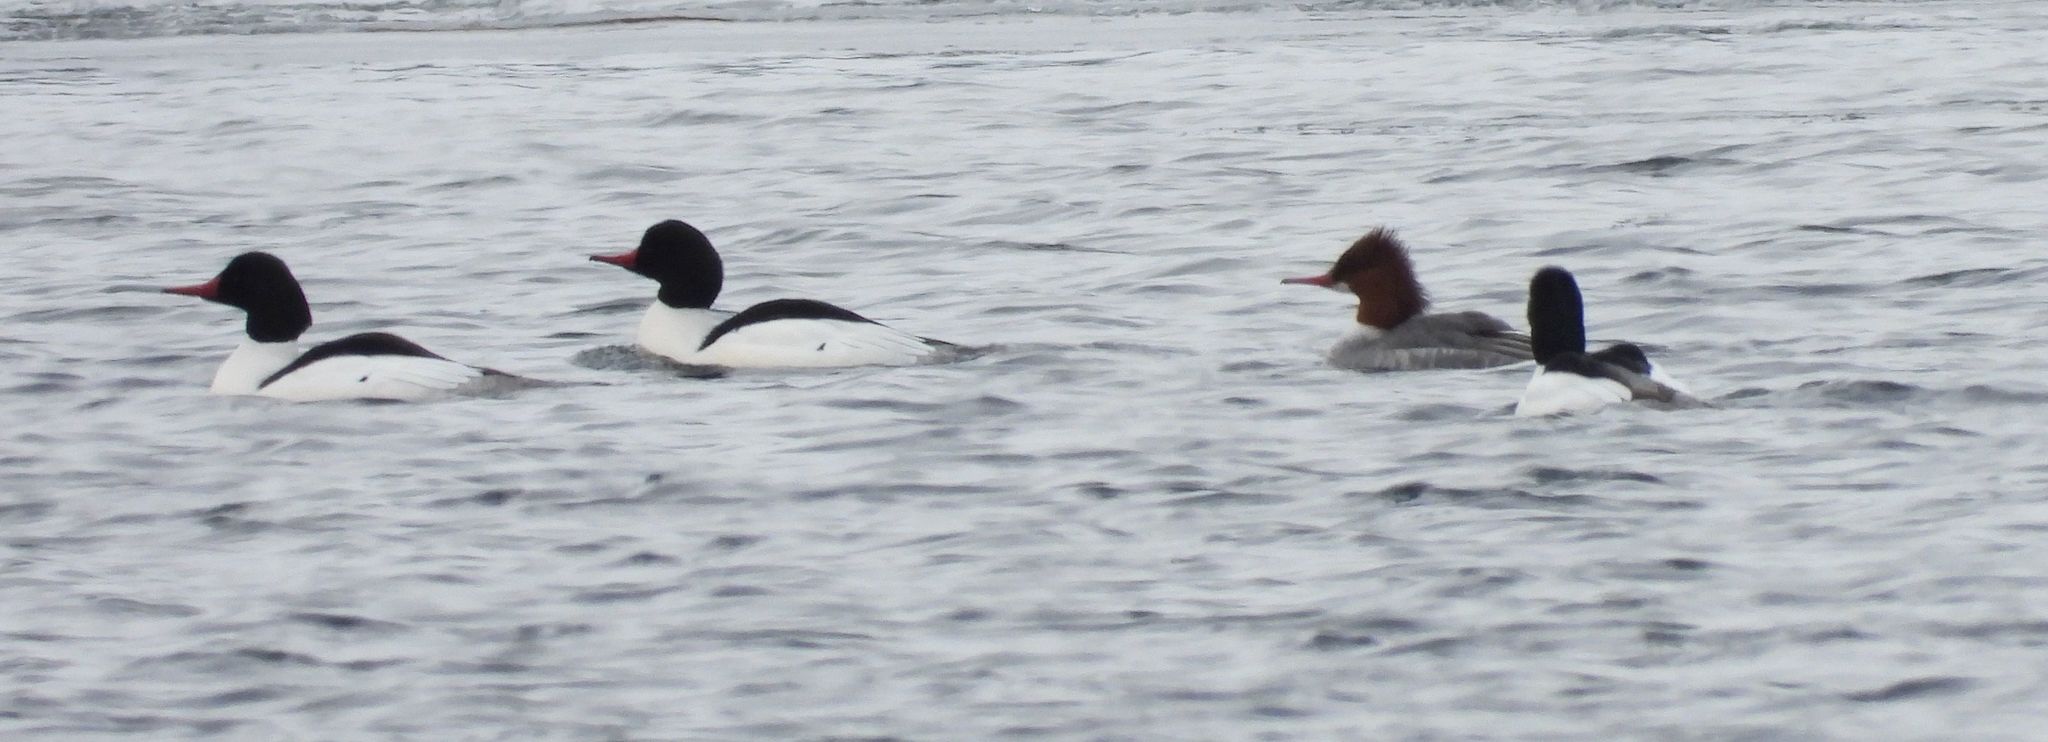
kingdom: Animalia
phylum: Chordata
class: Aves
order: Anseriformes
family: Anatidae
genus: Mergus
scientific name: Mergus merganser
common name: Common merganser
